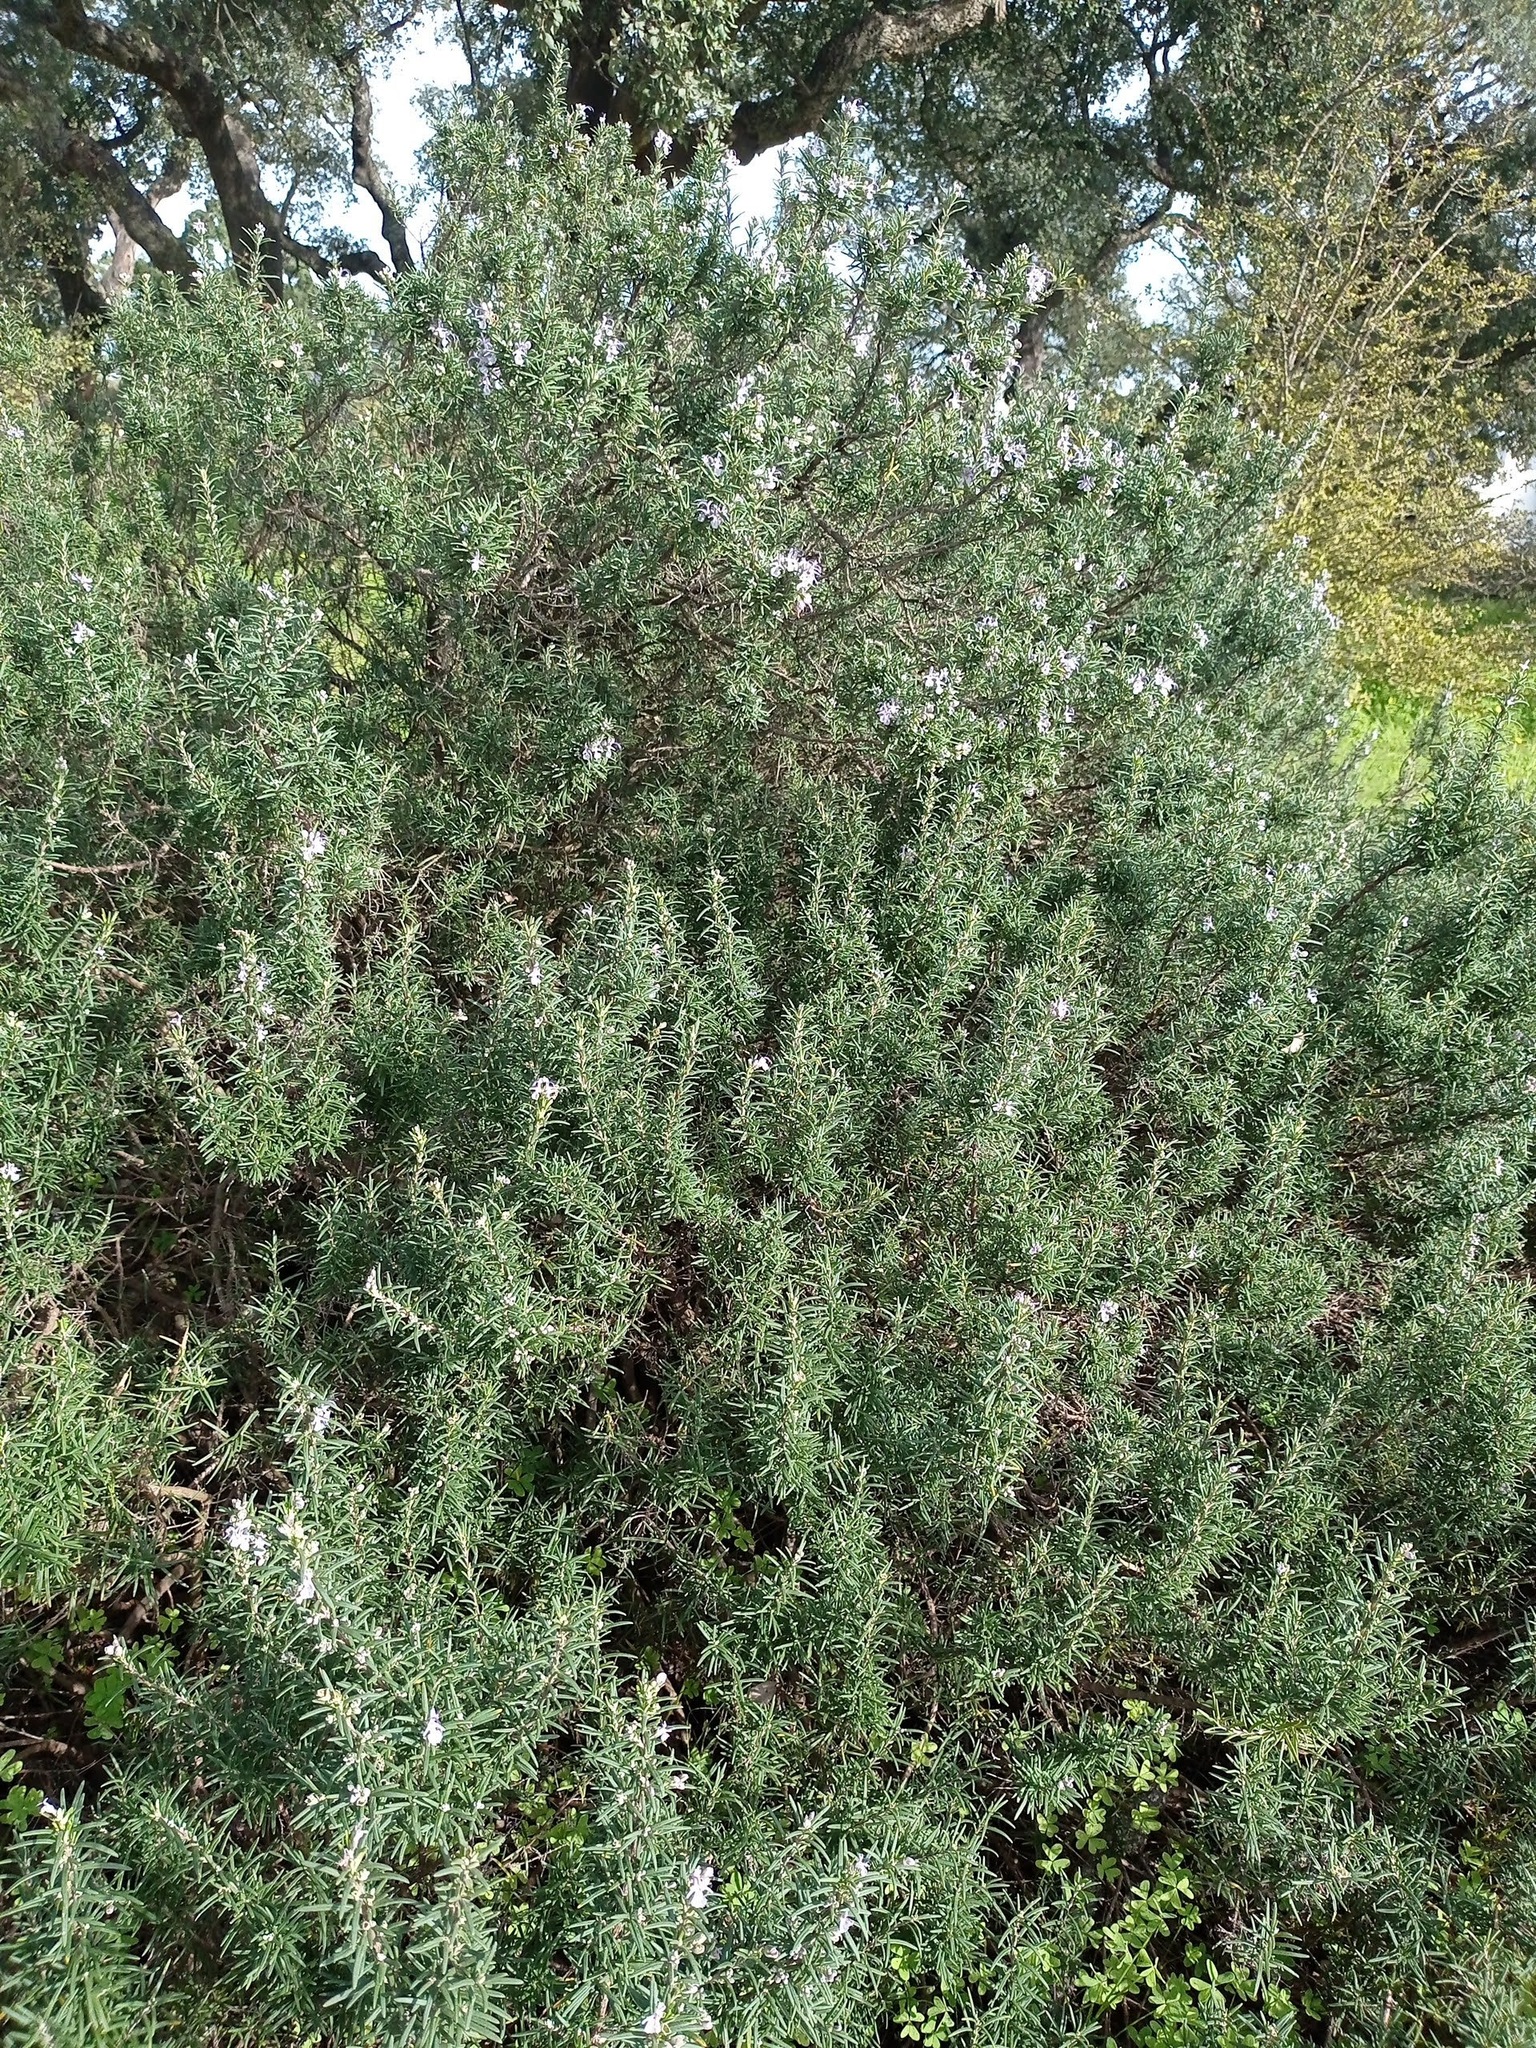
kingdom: Plantae
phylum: Tracheophyta
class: Magnoliopsida
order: Lamiales
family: Lamiaceae
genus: Salvia
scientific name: Salvia rosmarinus
